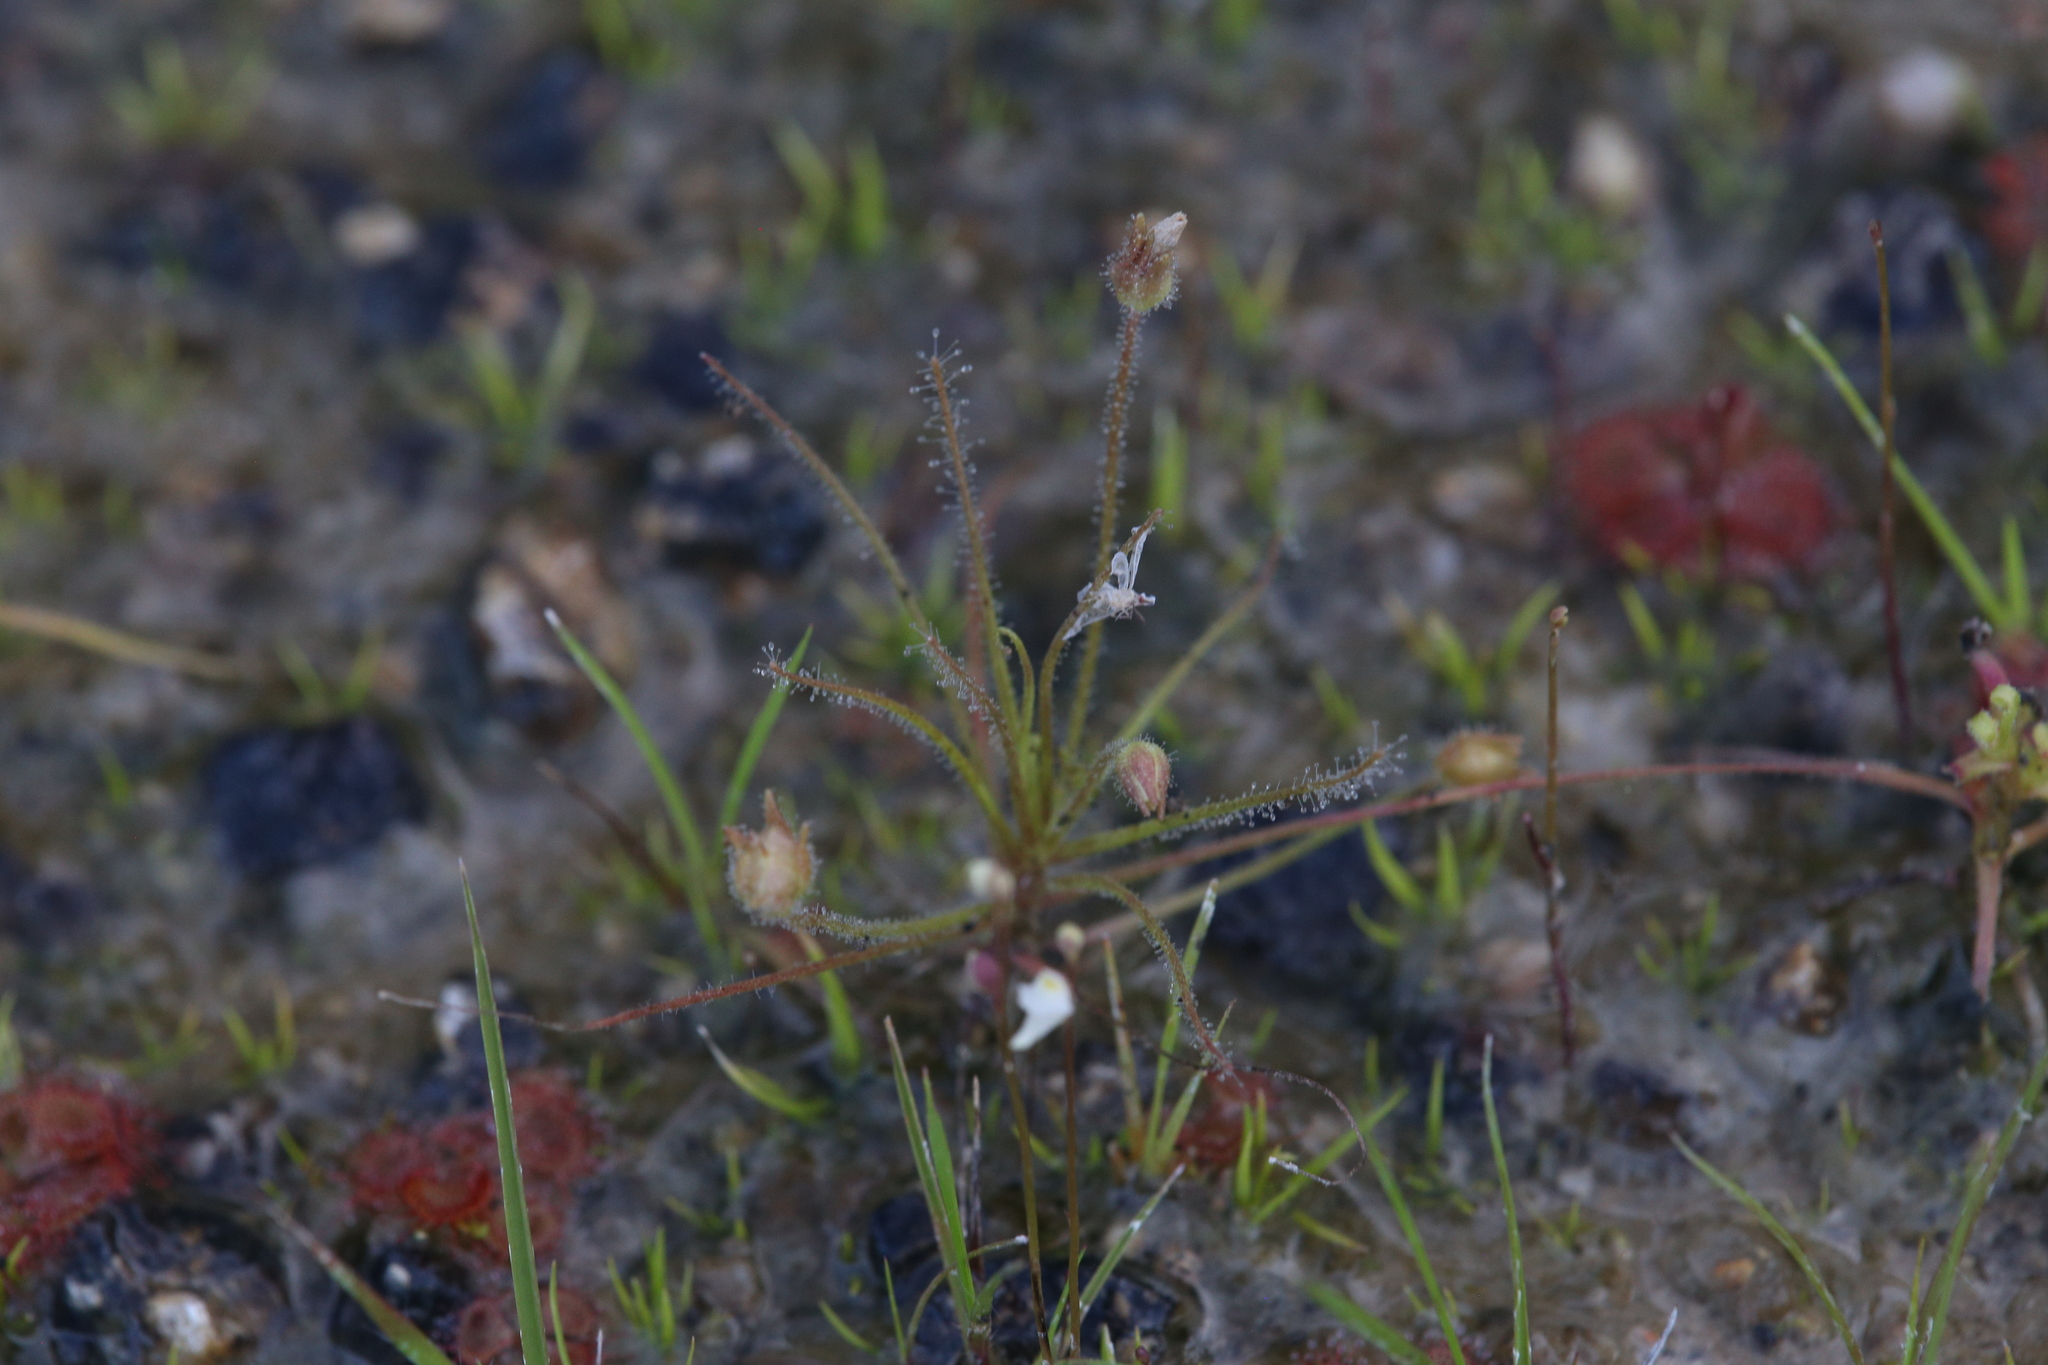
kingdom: Plantae
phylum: Tracheophyta
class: Magnoliopsida
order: Lamiales
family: Byblidaceae
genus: Byblis
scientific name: Byblis liniflora
